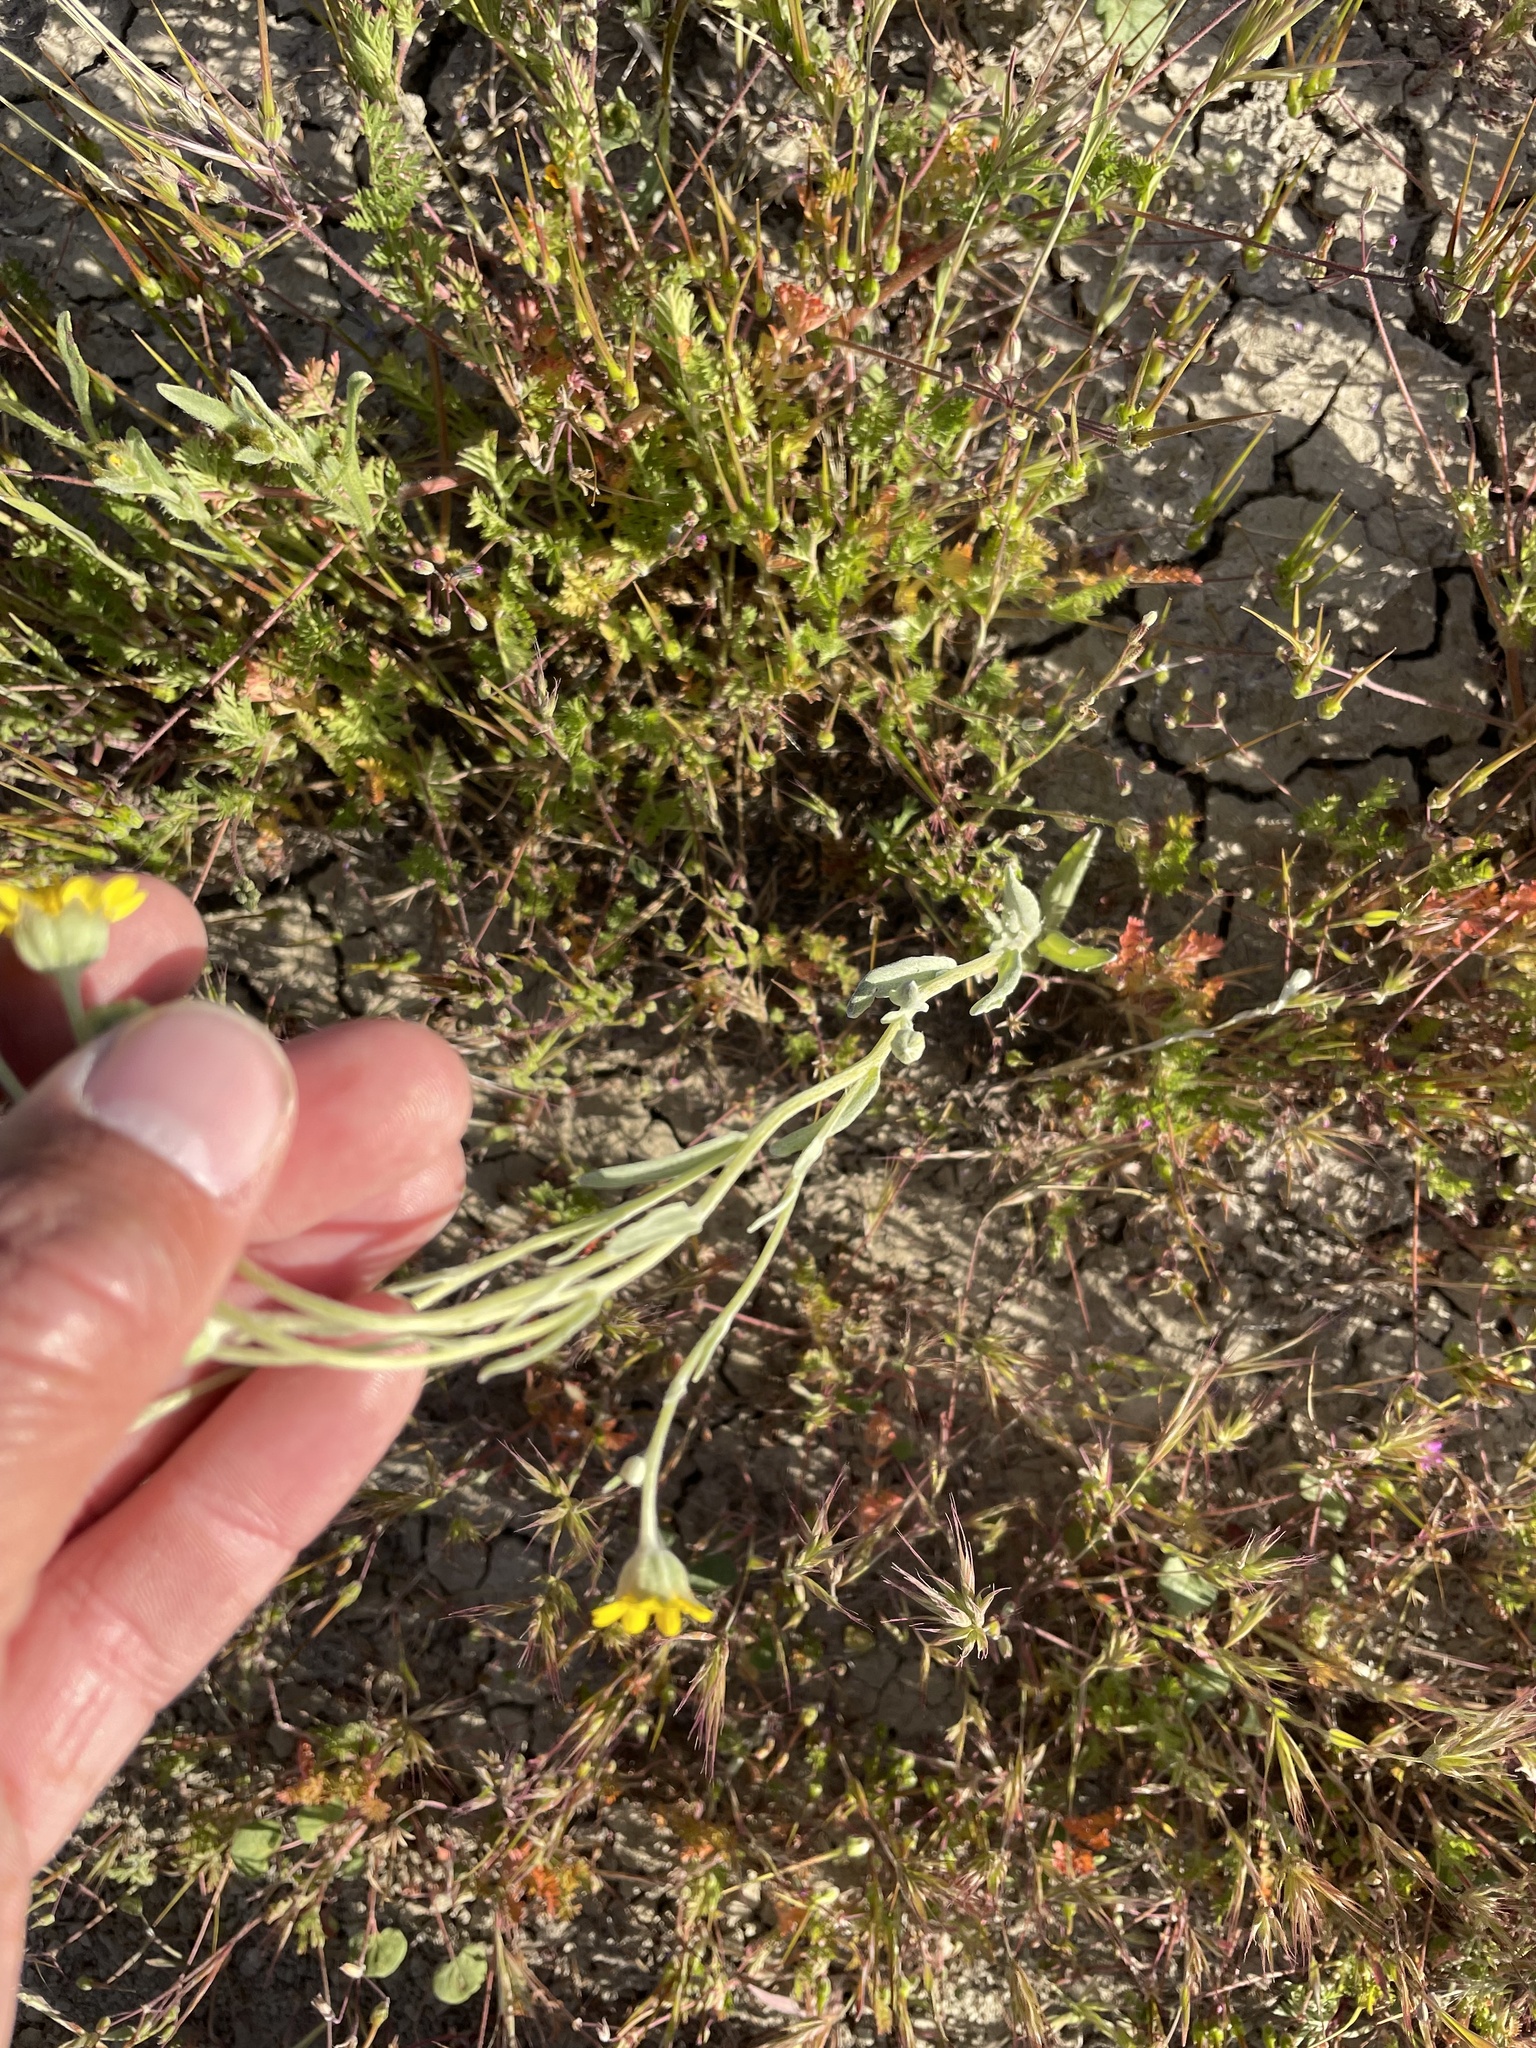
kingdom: Plantae
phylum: Tracheophyta
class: Magnoliopsida
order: Asterales
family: Asteraceae
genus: Monolopia
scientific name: Monolopia stricta
